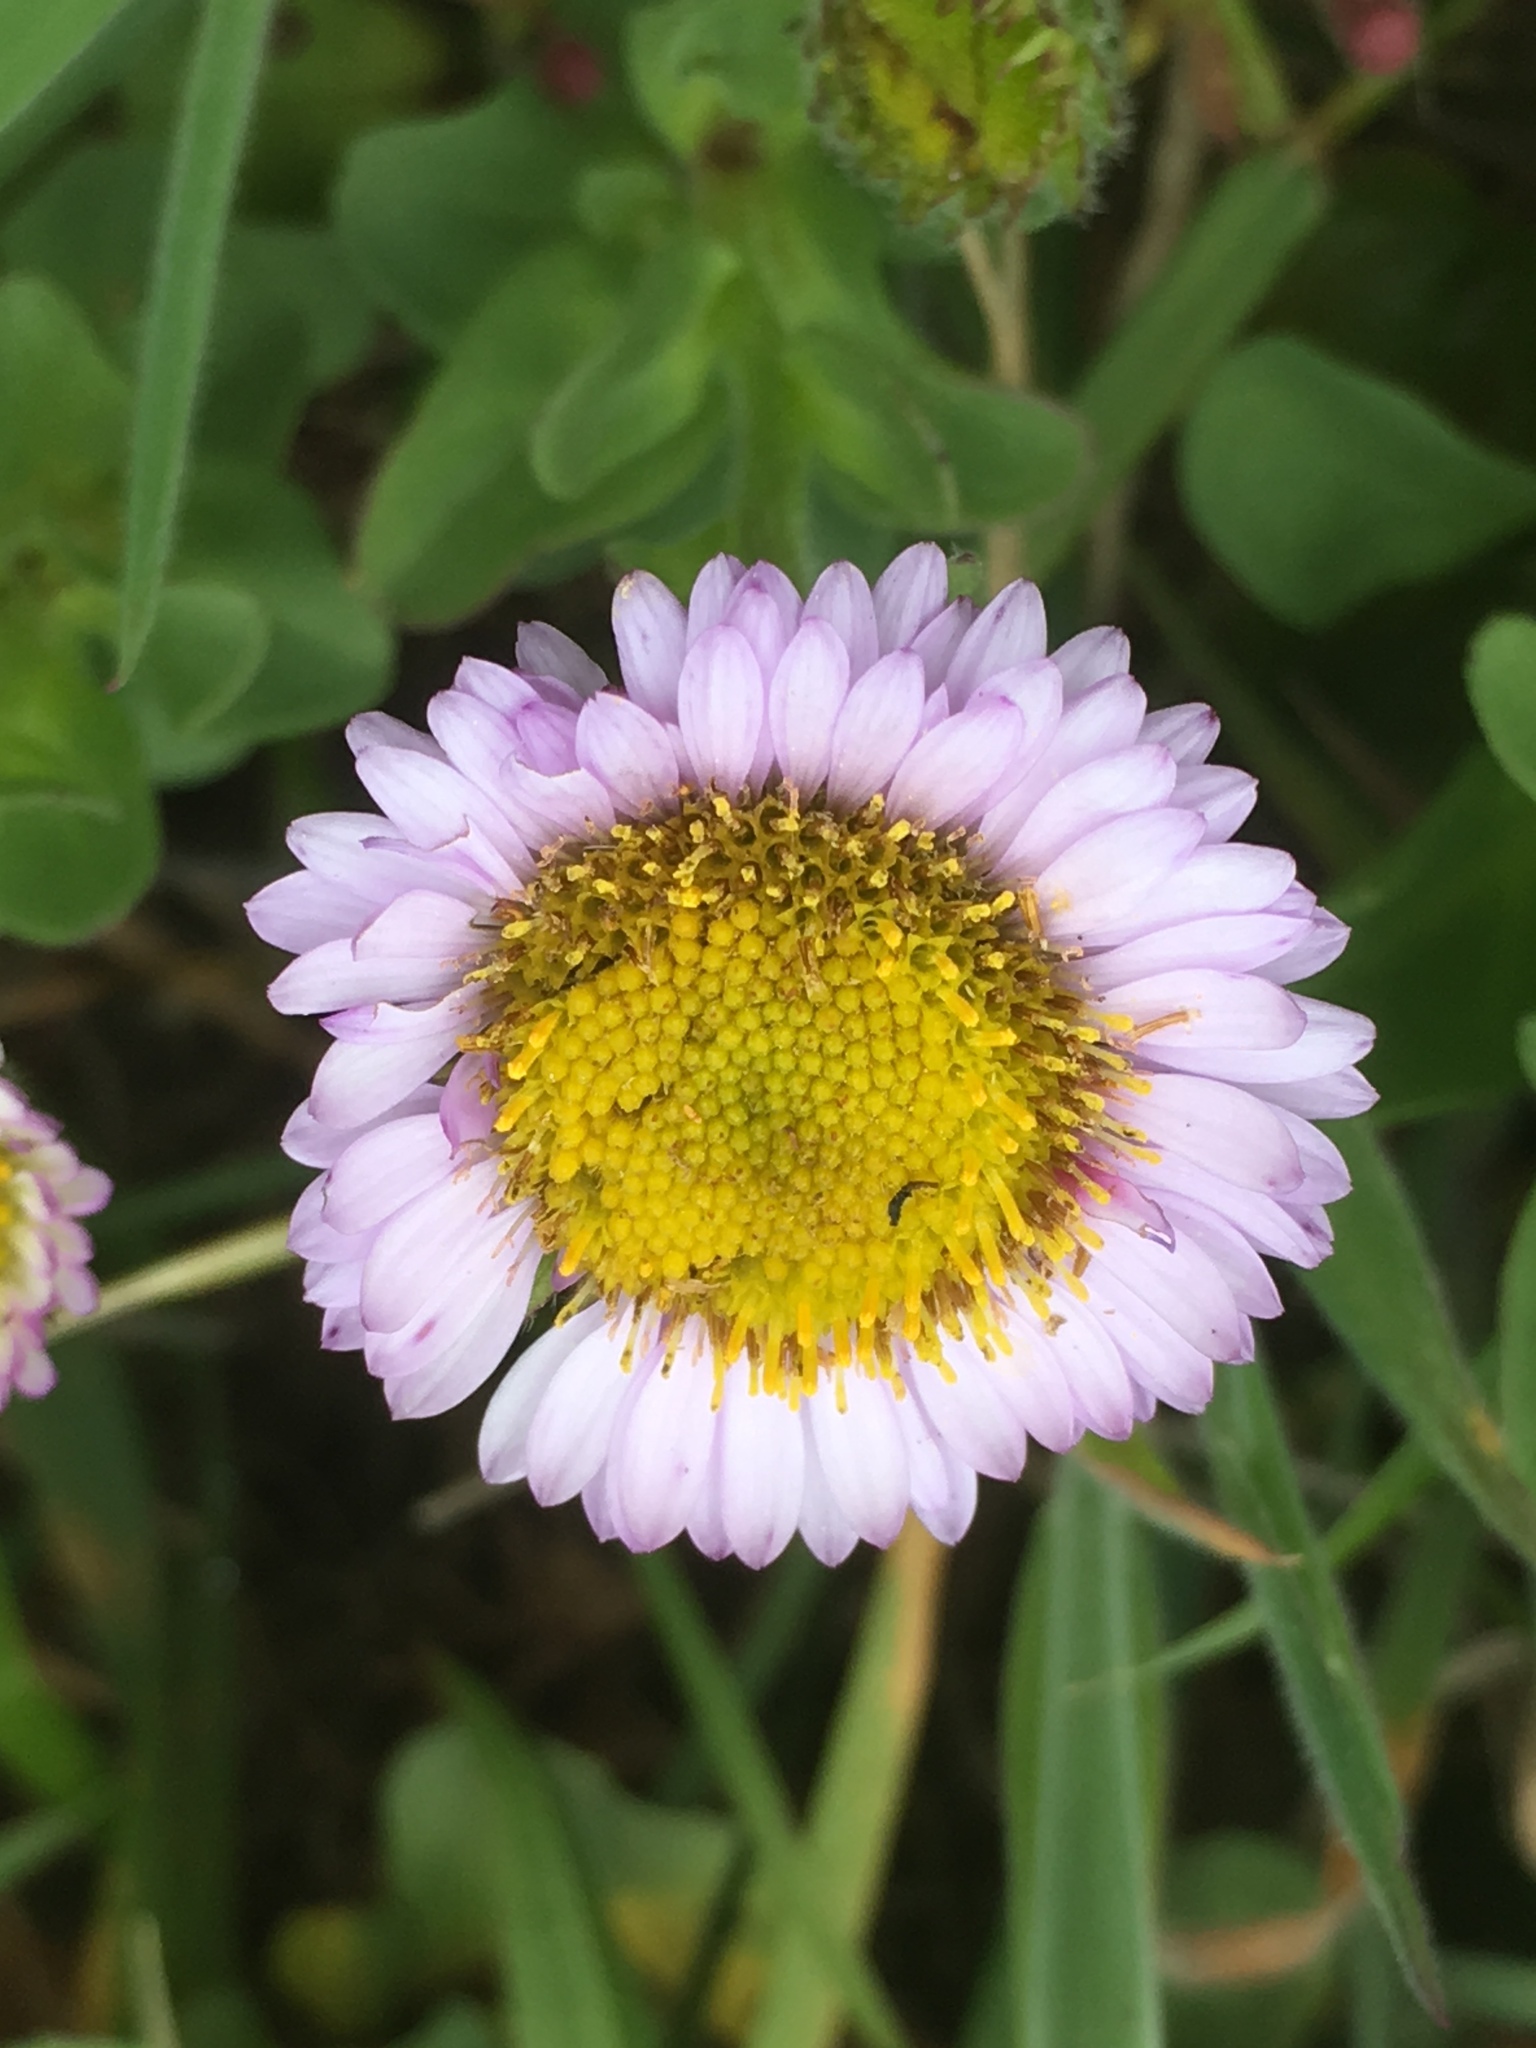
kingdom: Plantae
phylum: Tracheophyta
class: Magnoliopsida
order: Asterales
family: Asteraceae
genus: Erigeron
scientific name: Erigeron glaucus
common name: Seaside daisy
